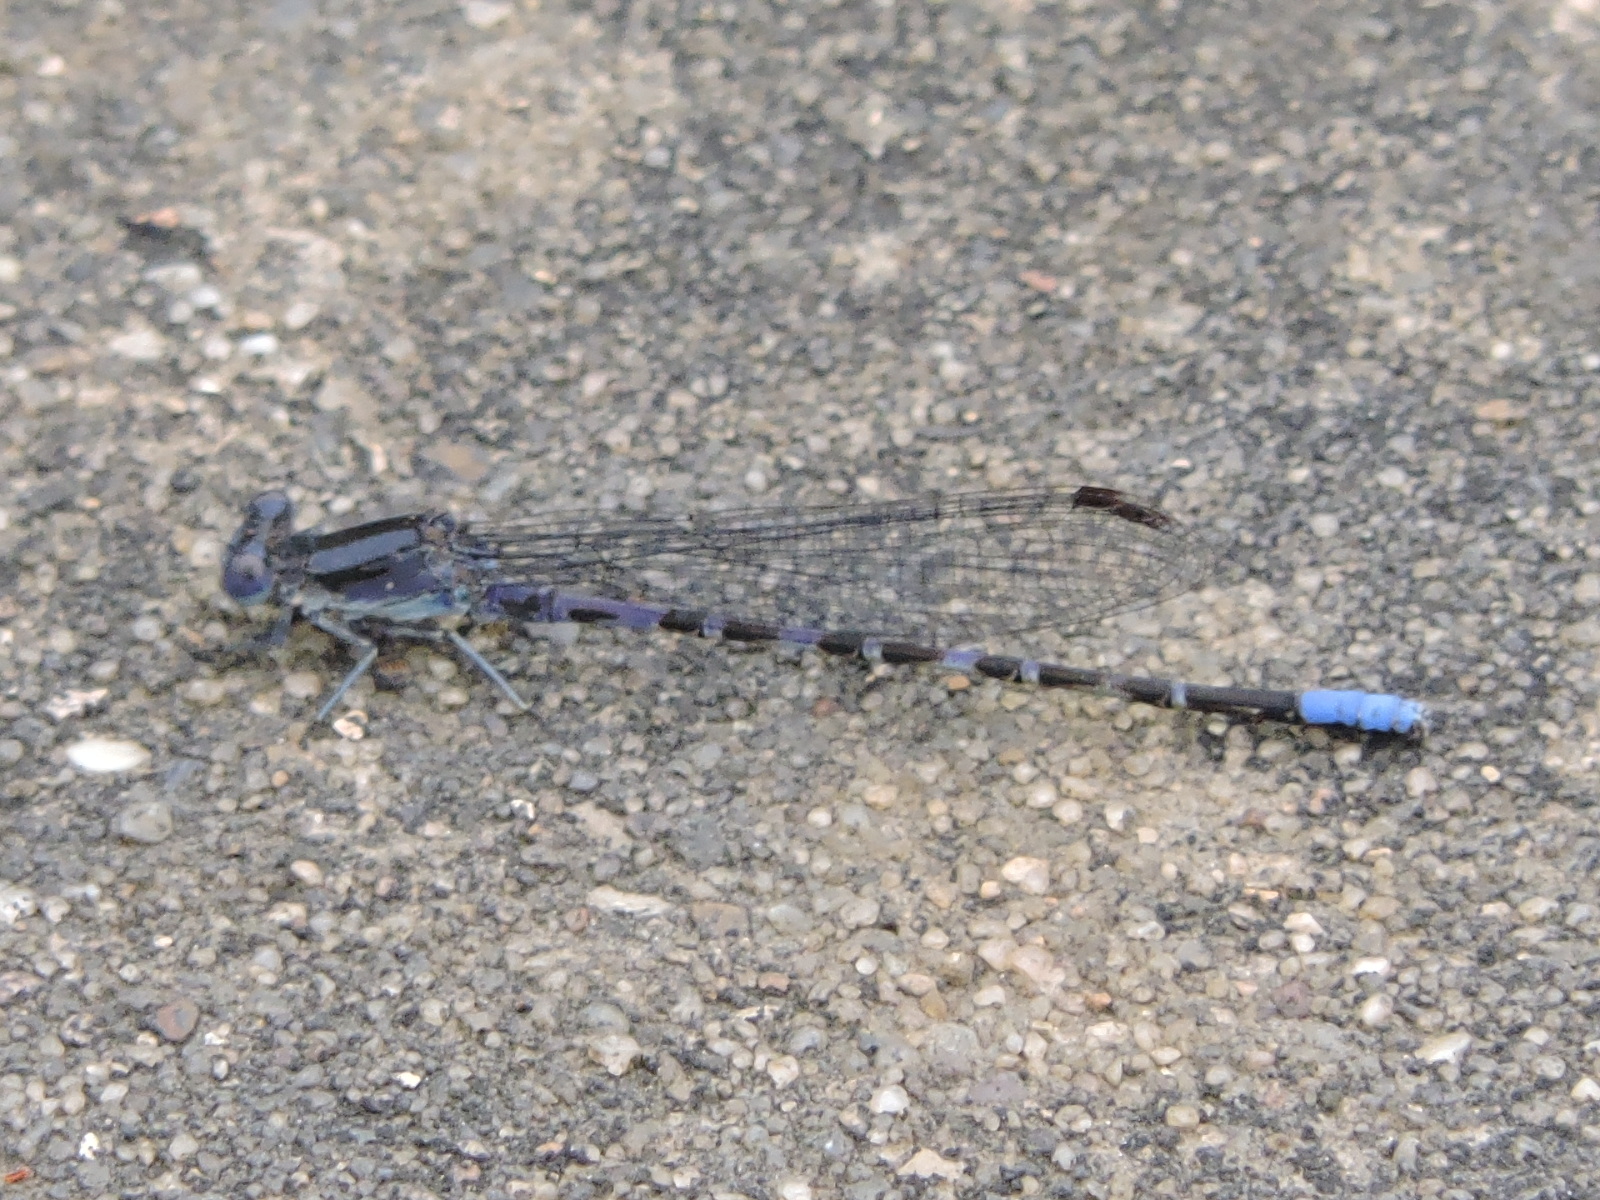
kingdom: Animalia
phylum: Arthropoda
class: Insecta
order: Odonata
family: Coenagrionidae
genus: Argia
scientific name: Argia immunda
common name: Kiowa dancer
